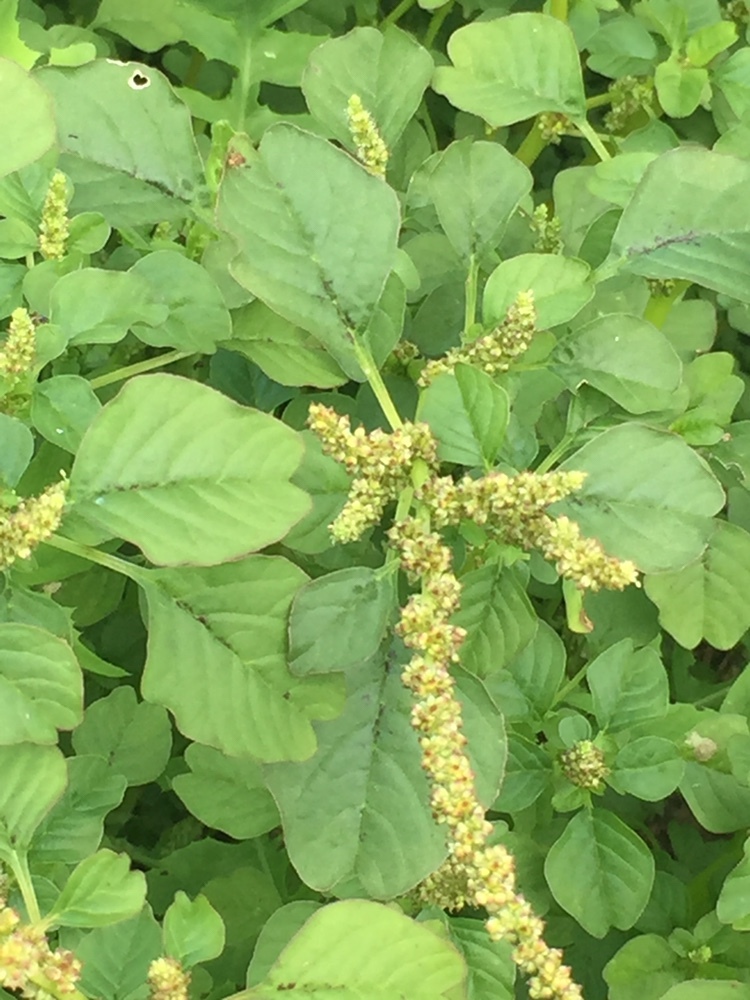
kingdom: Plantae
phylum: Tracheophyta
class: Magnoliopsida
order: Caryophyllales
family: Amaranthaceae
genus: Amaranthus
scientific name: Amaranthus blitum
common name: Purple amaranth
